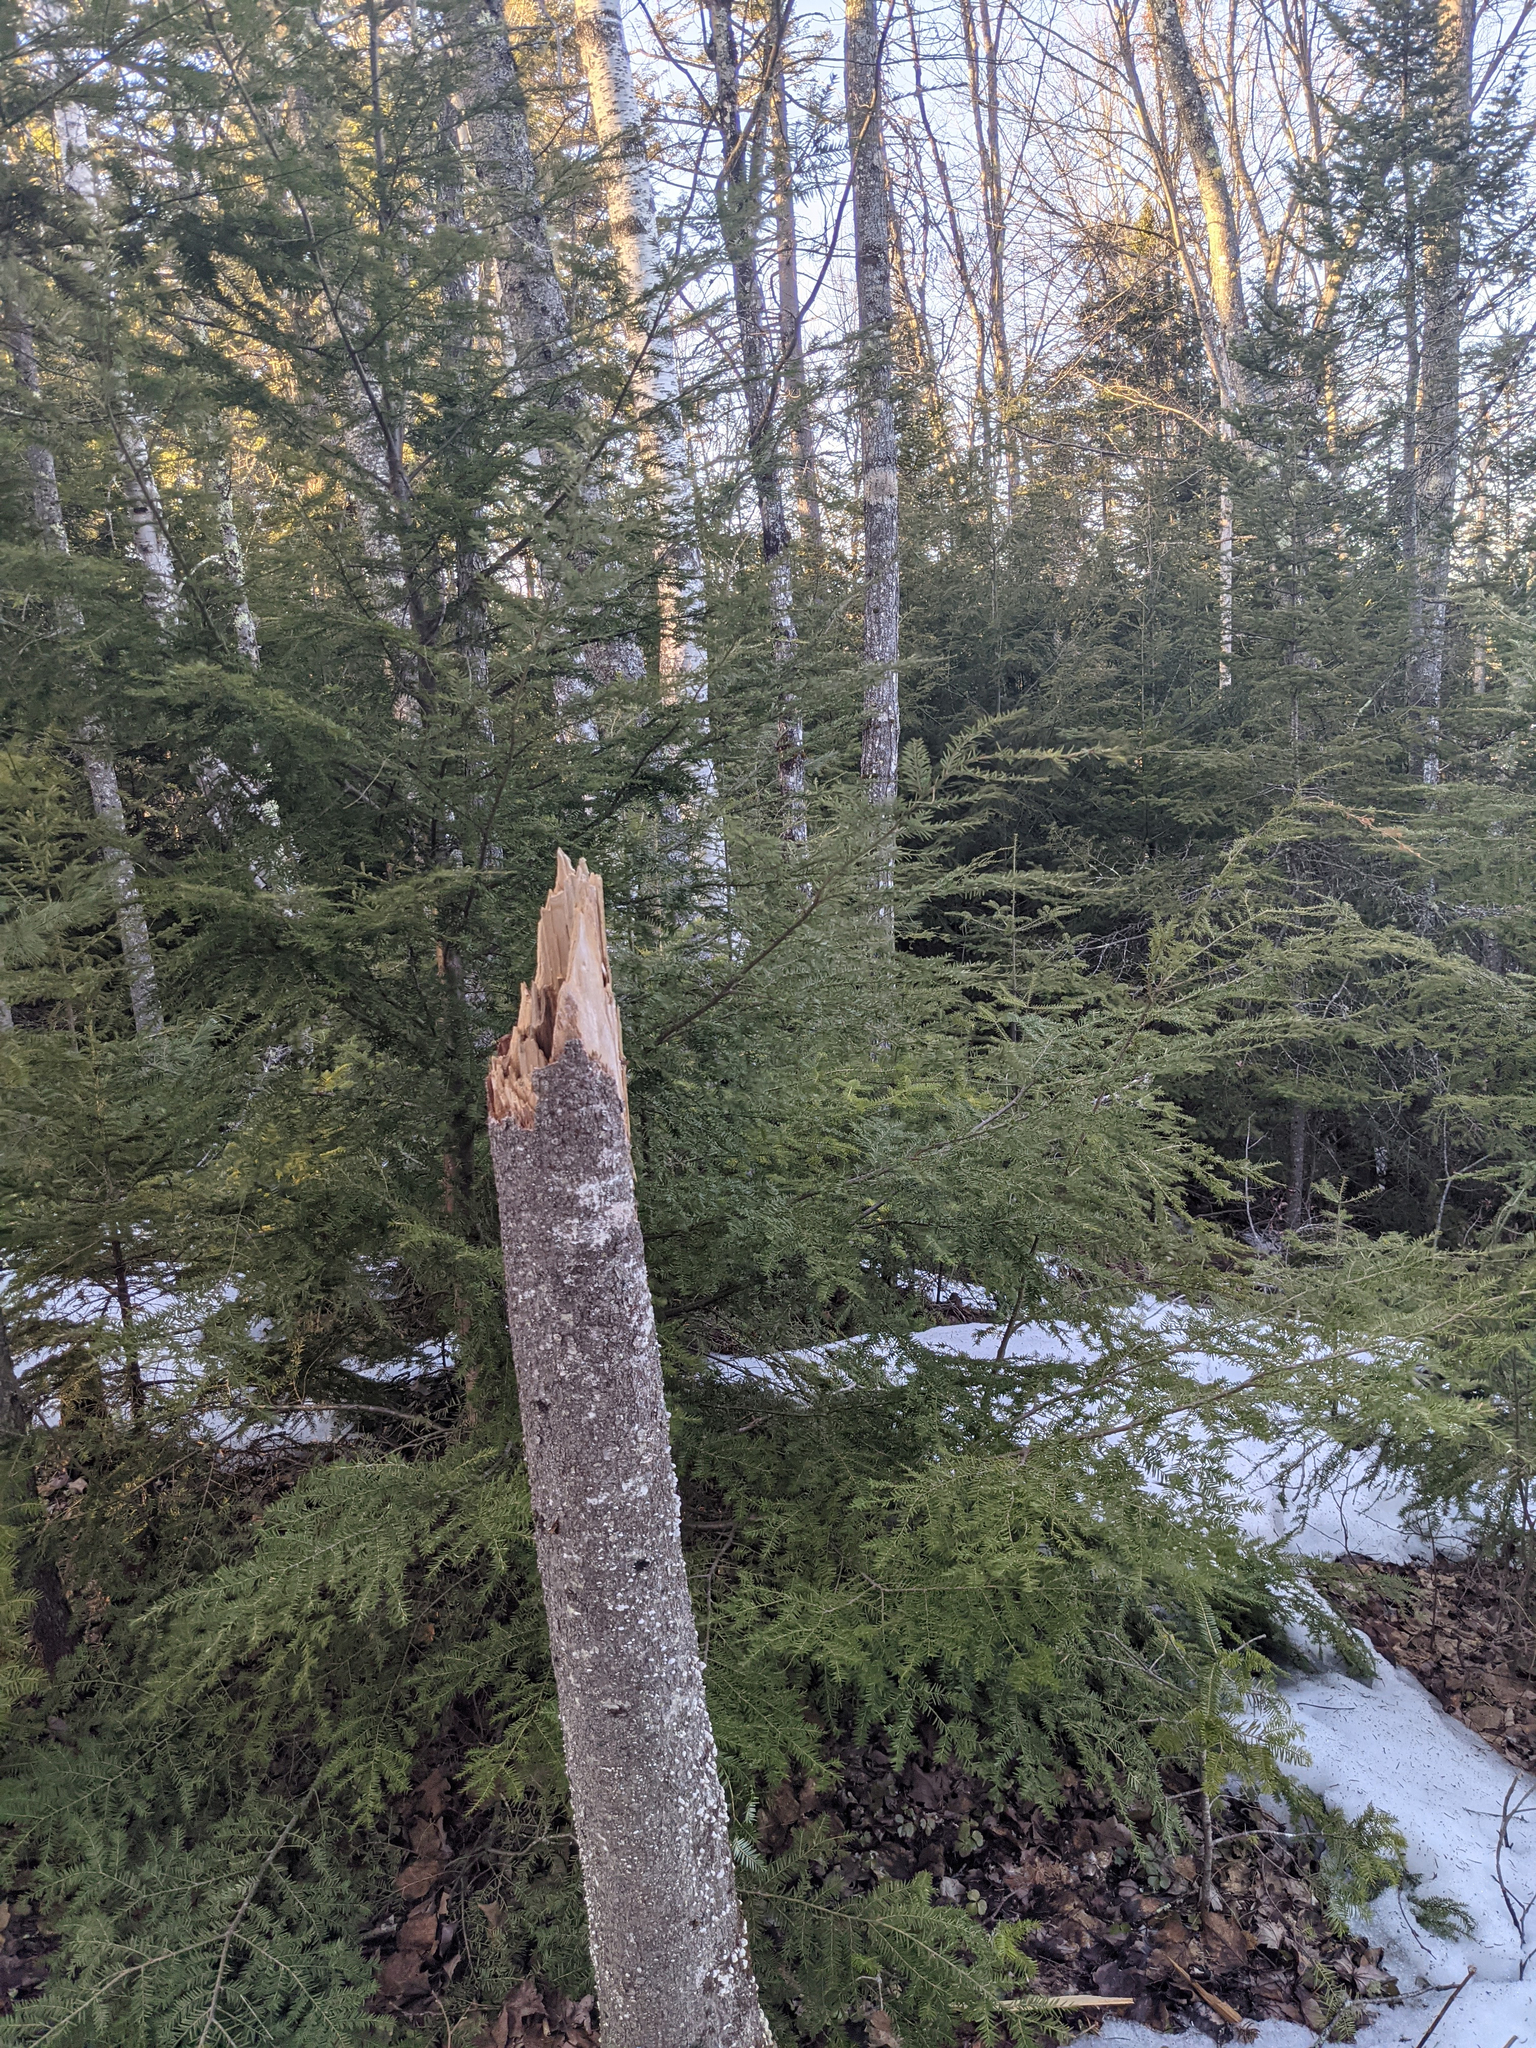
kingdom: Plantae
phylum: Tracheophyta
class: Pinopsida
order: Pinales
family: Pinaceae
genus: Tsuga
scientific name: Tsuga canadensis
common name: Eastern hemlock
